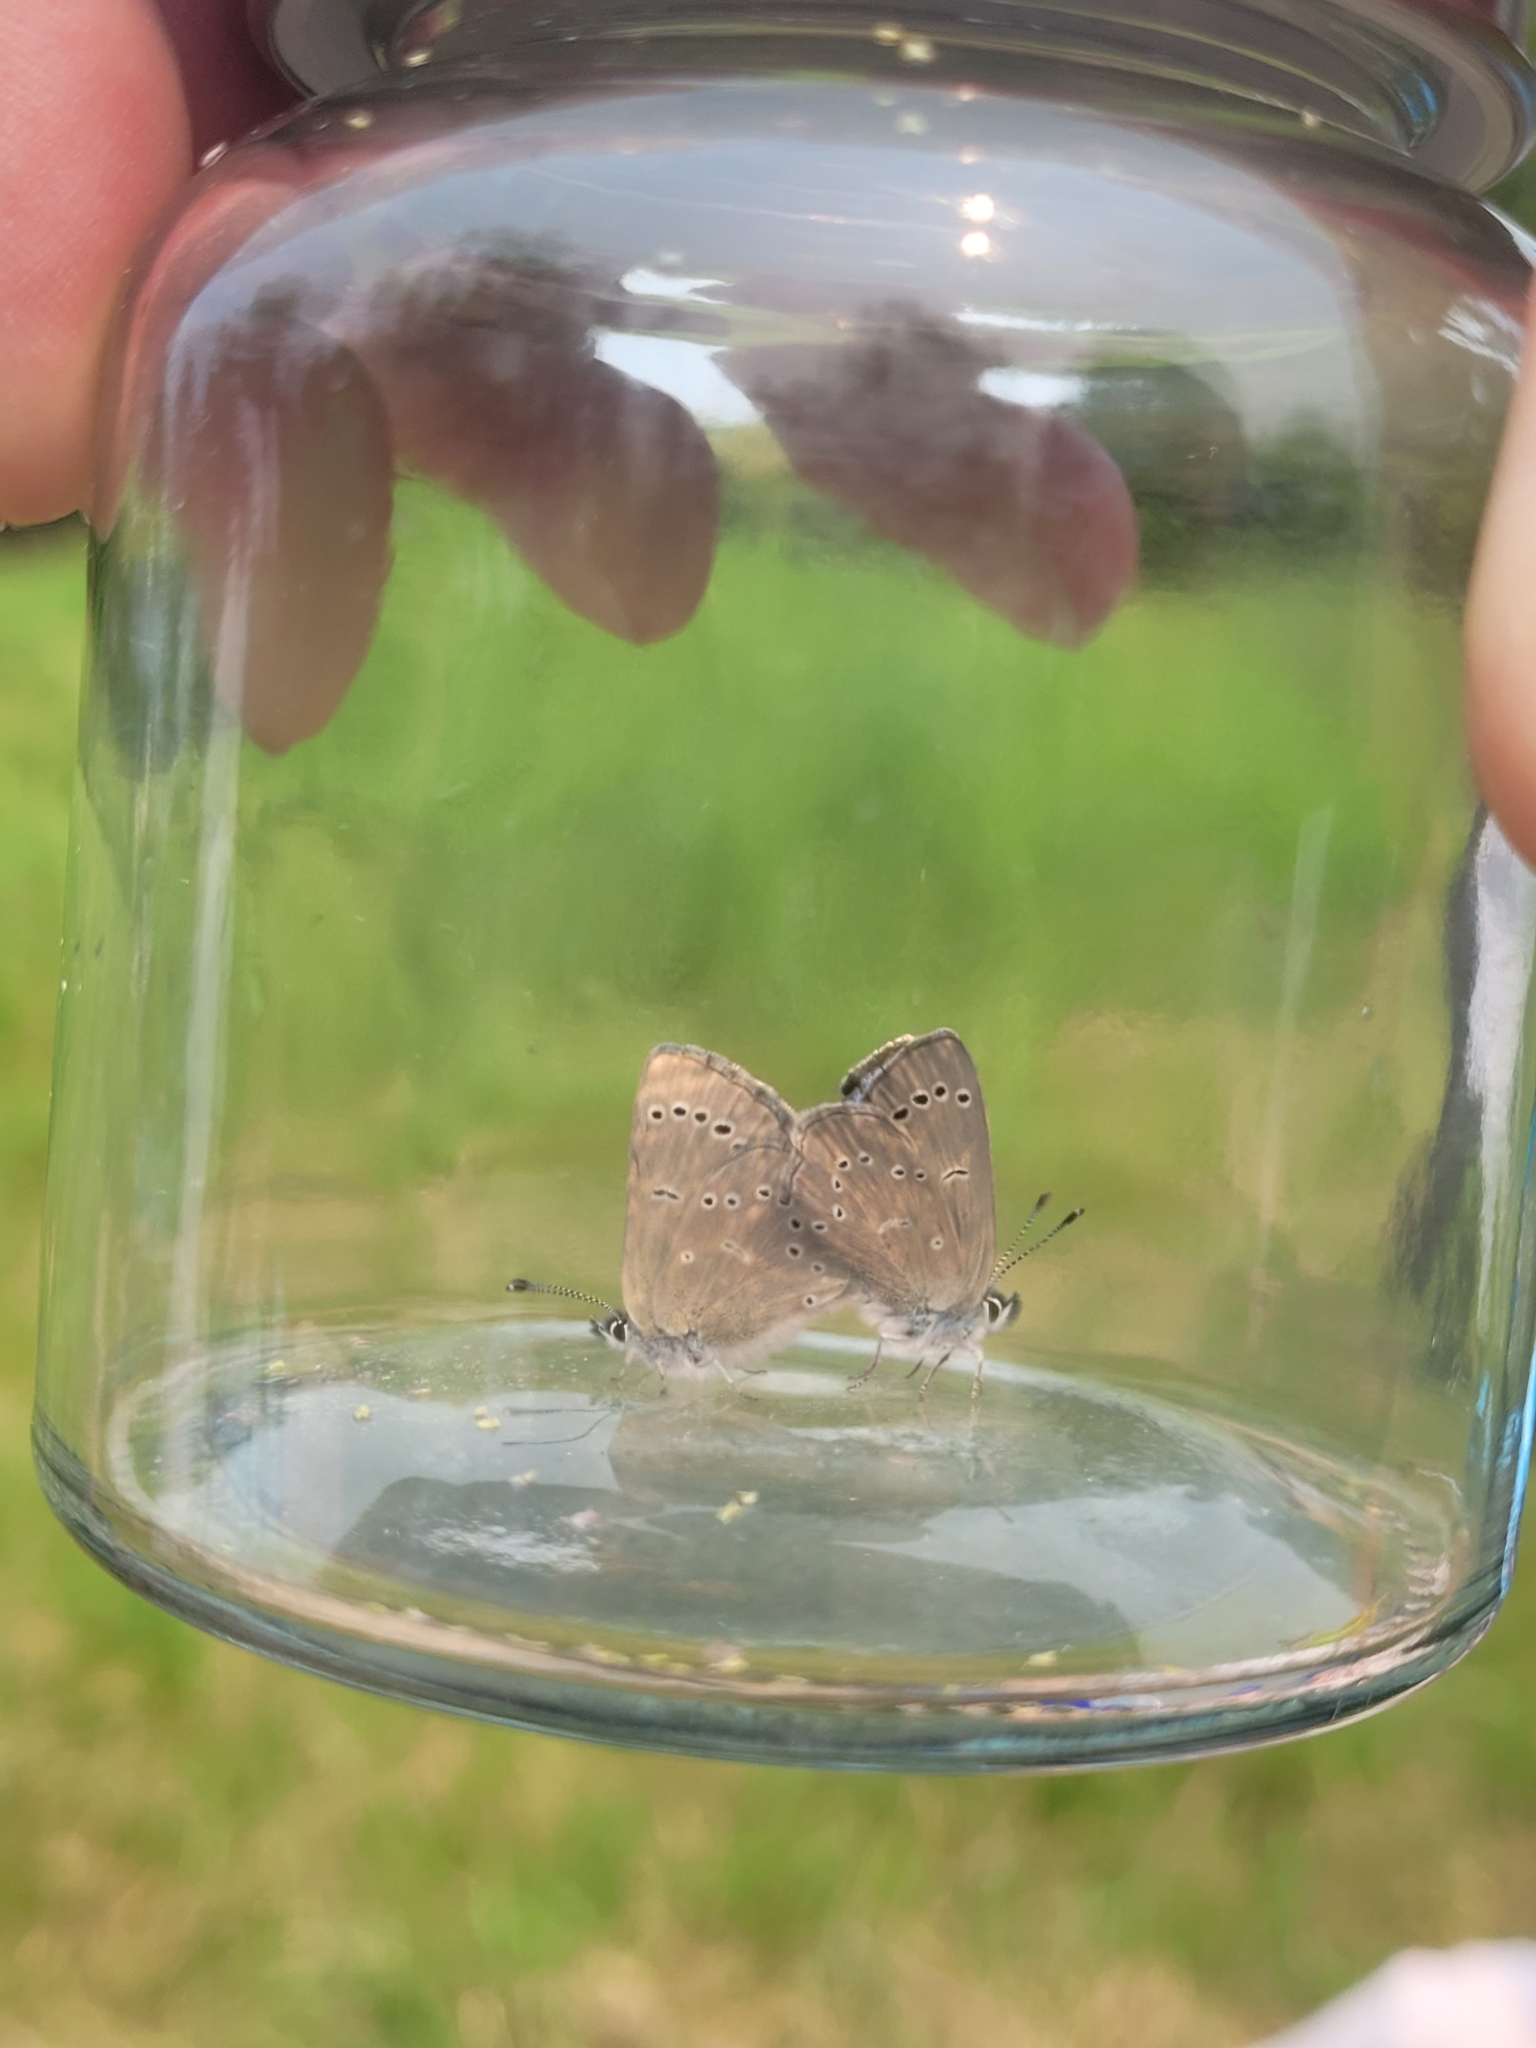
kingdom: Animalia
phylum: Arthropoda
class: Insecta
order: Lepidoptera
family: Lycaenidae
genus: Glaucopsyche
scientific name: Glaucopsyche lygdamus
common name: Silvery blue
